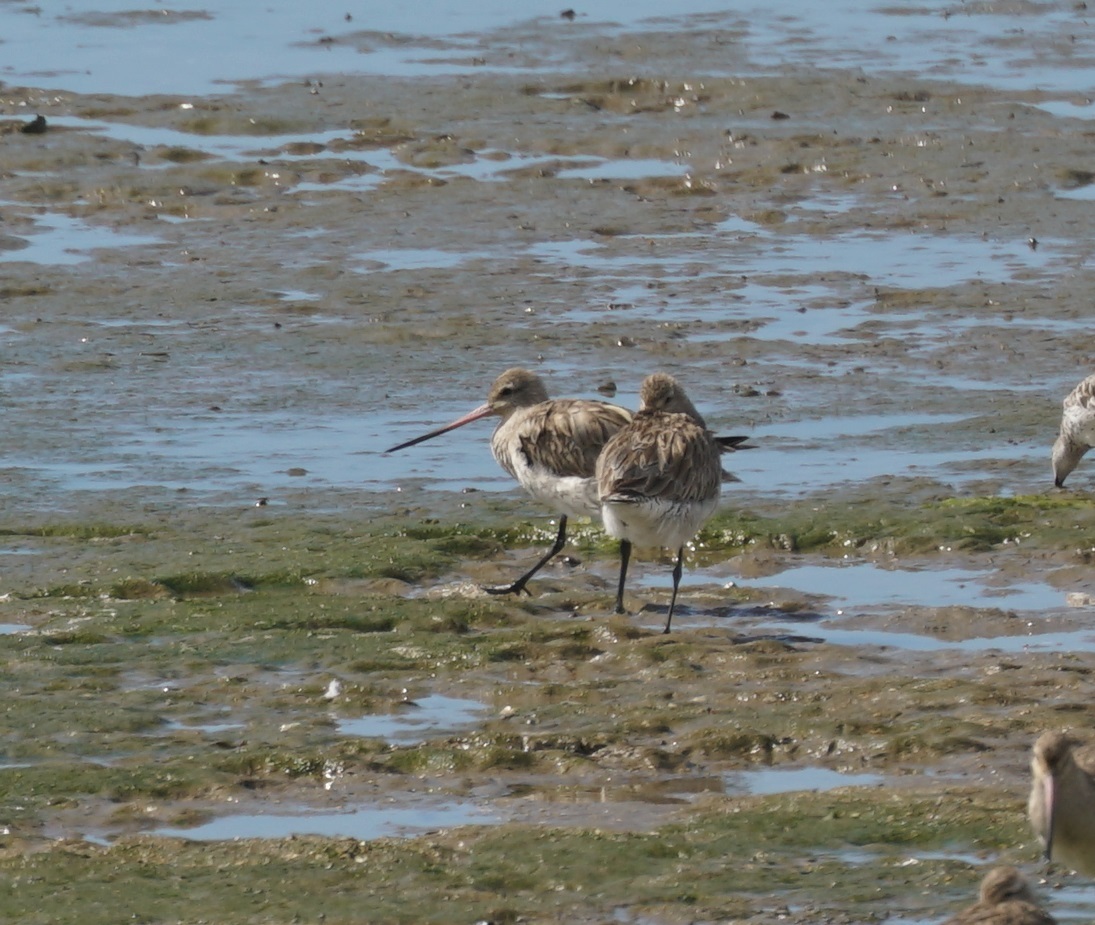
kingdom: Animalia
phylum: Chordata
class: Aves
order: Charadriiformes
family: Scolopacidae
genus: Limosa
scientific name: Limosa lapponica
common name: Bar-tailed godwit
